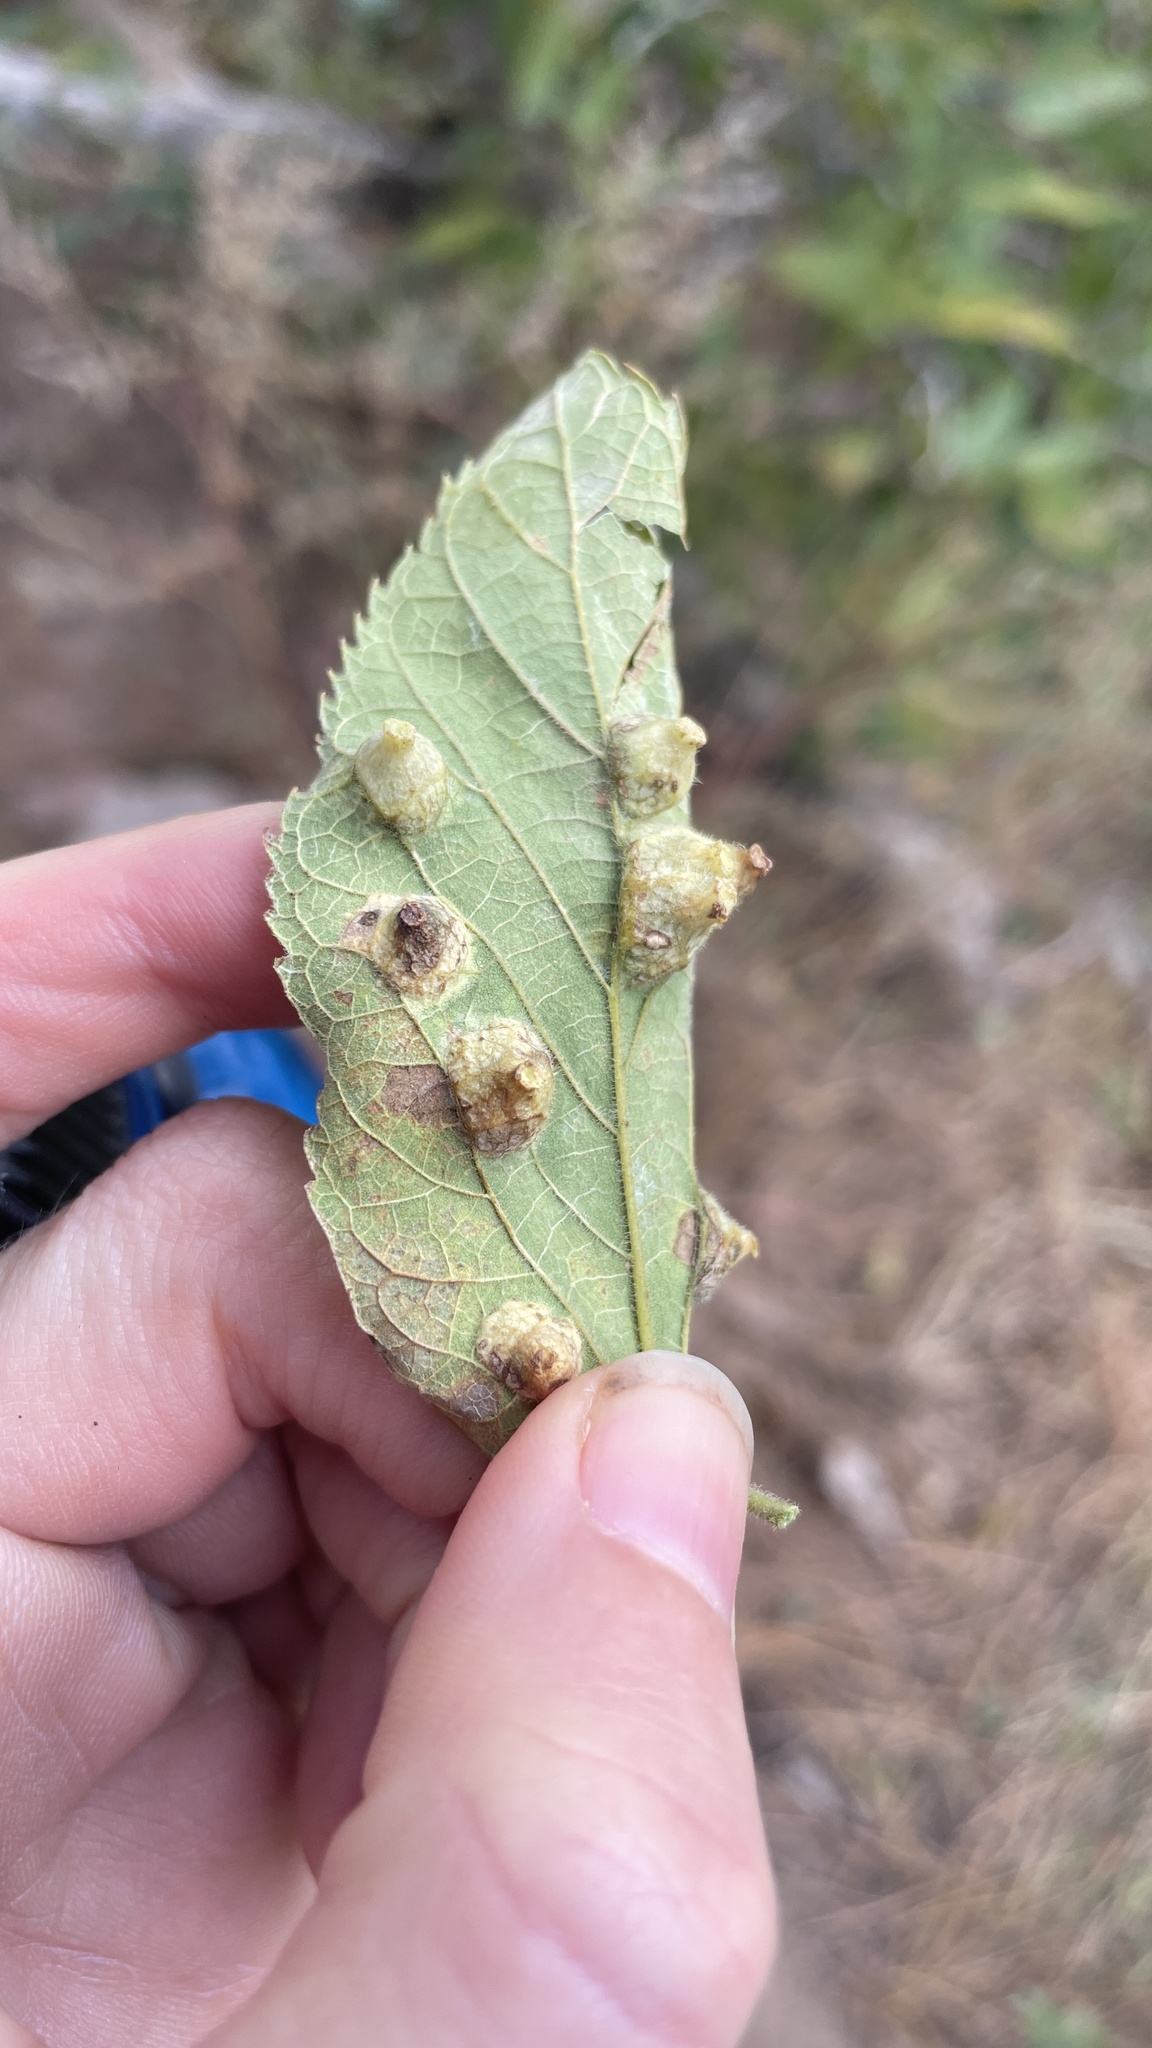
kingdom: Animalia
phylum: Arthropoda
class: Insecta
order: Hemiptera
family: Aphalaridae
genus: Pachypsylla
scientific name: Pachypsylla celtidismamma
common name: Hackberry nipplegall psyllid
